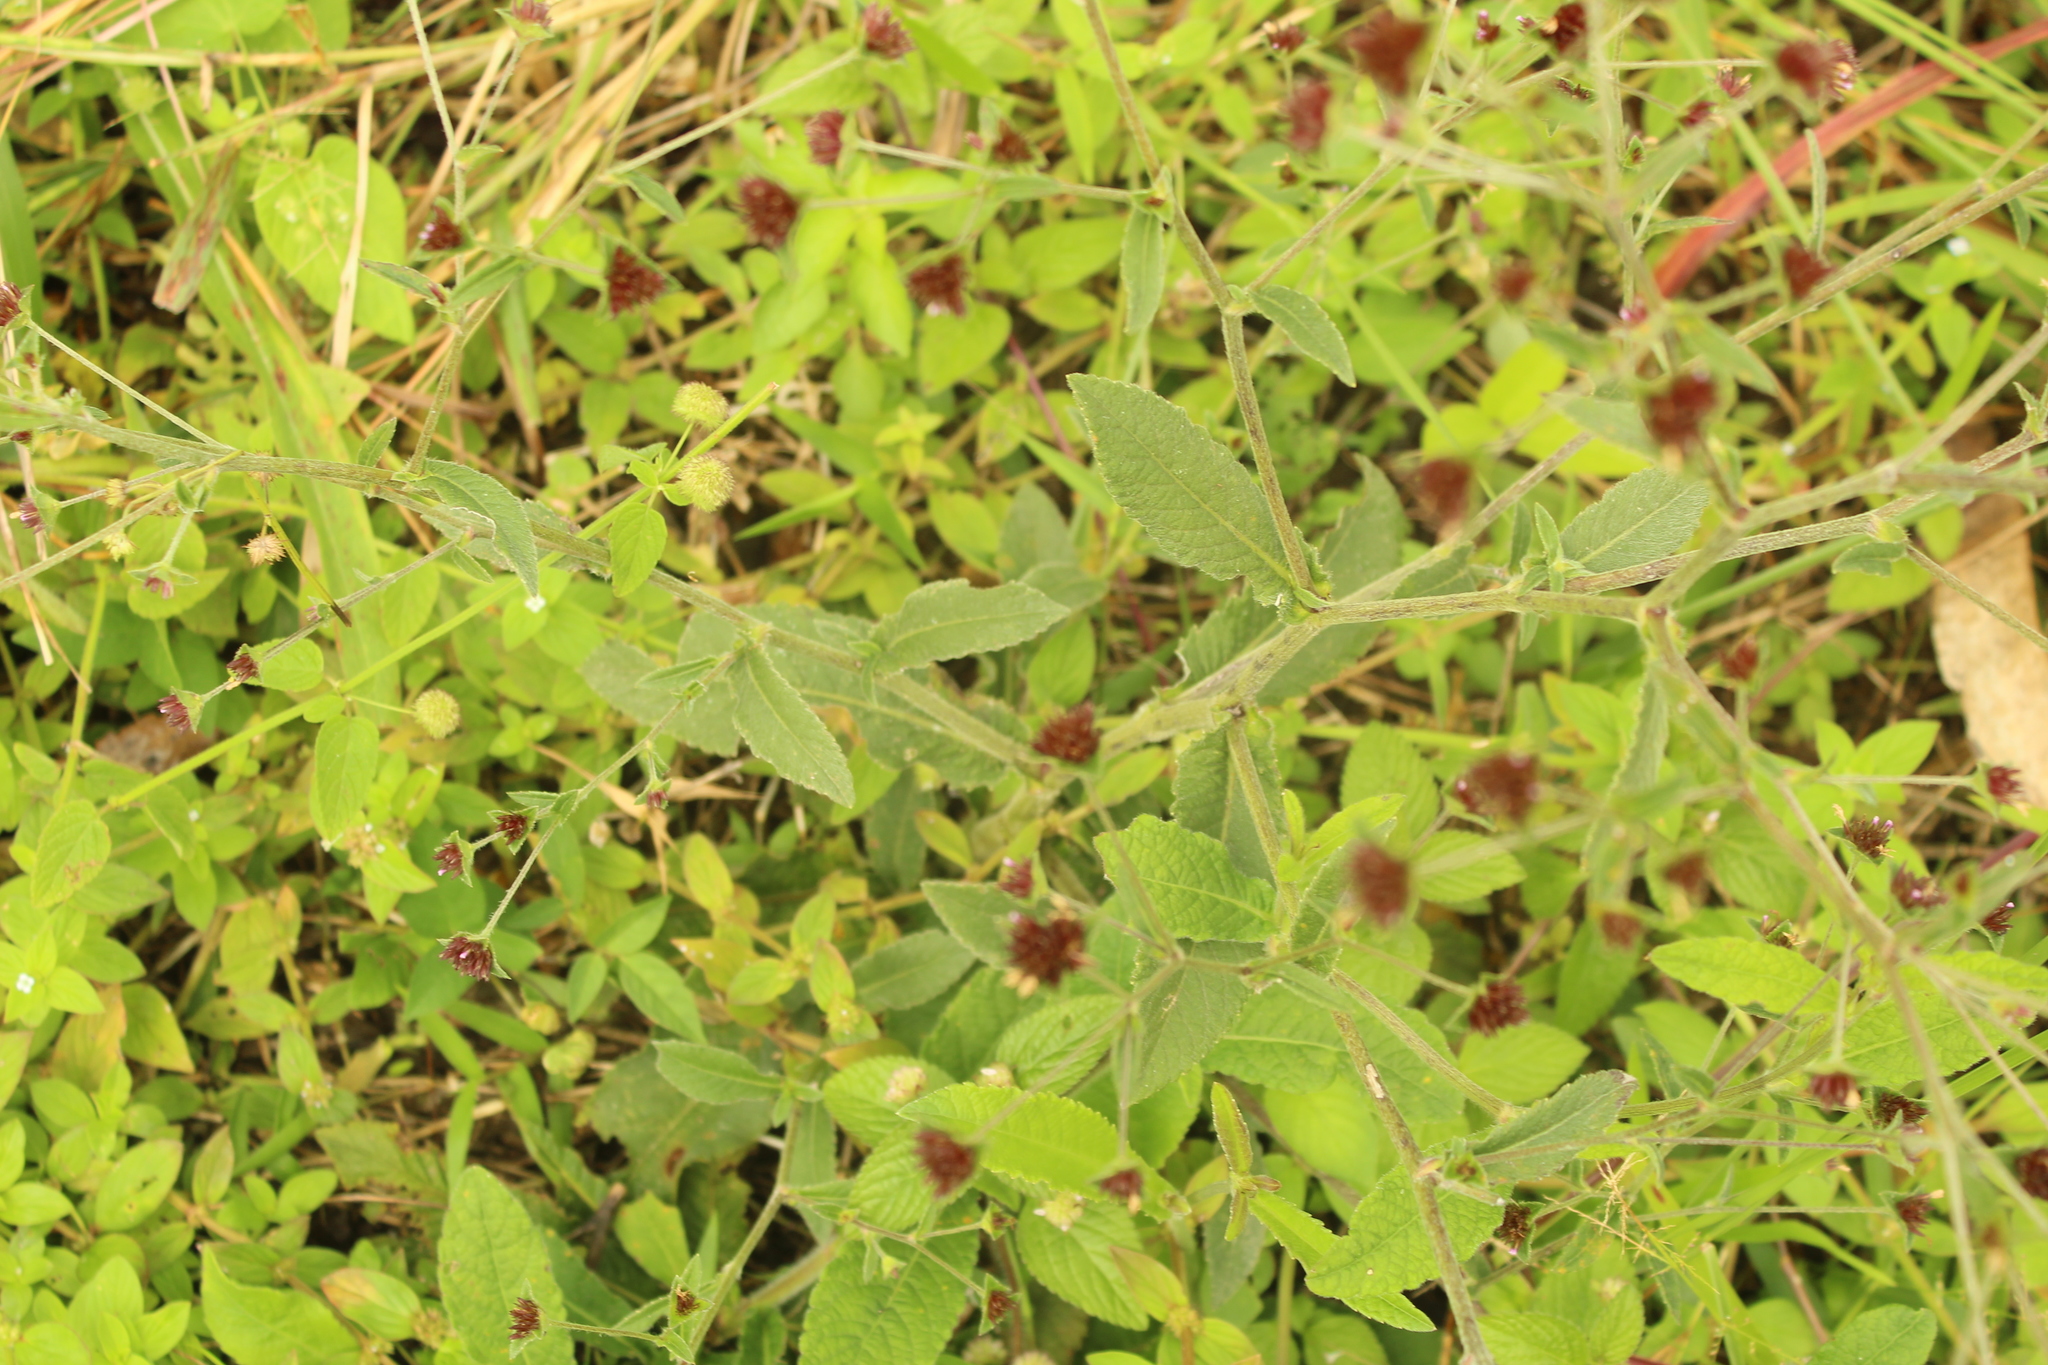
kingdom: Plantae
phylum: Tracheophyta
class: Magnoliopsida
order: Asterales
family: Asteraceae
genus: Elephantopus
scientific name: Elephantopus mollis
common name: Soft elephantsfoot
